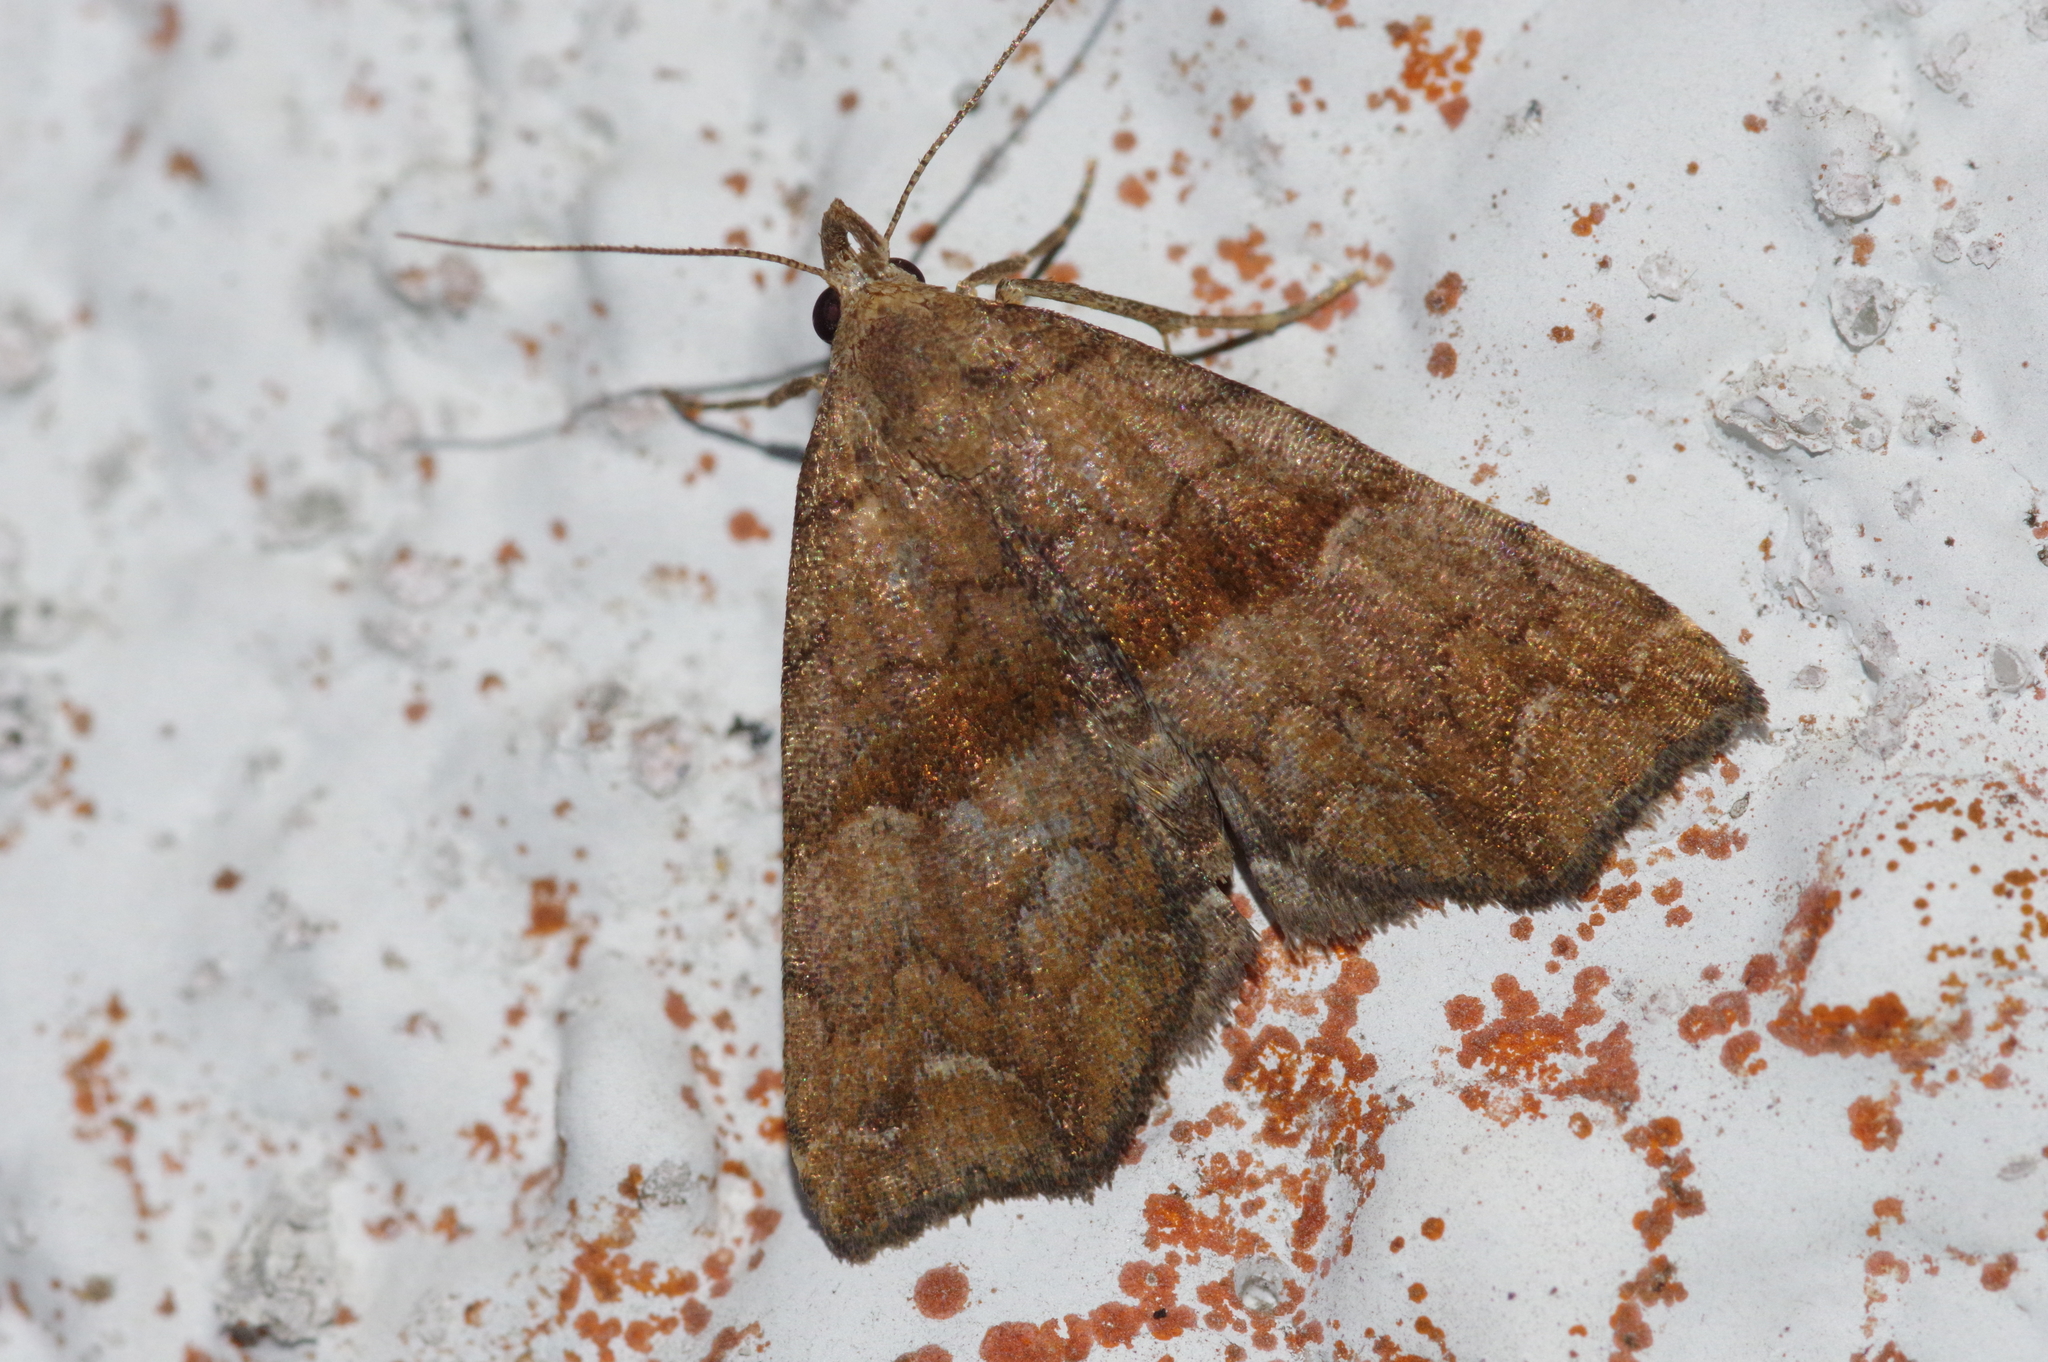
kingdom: Animalia
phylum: Arthropoda
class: Insecta
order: Lepidoptera
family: Erebidae
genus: Polypogon
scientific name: Polypogon Hipoepa fractalis
